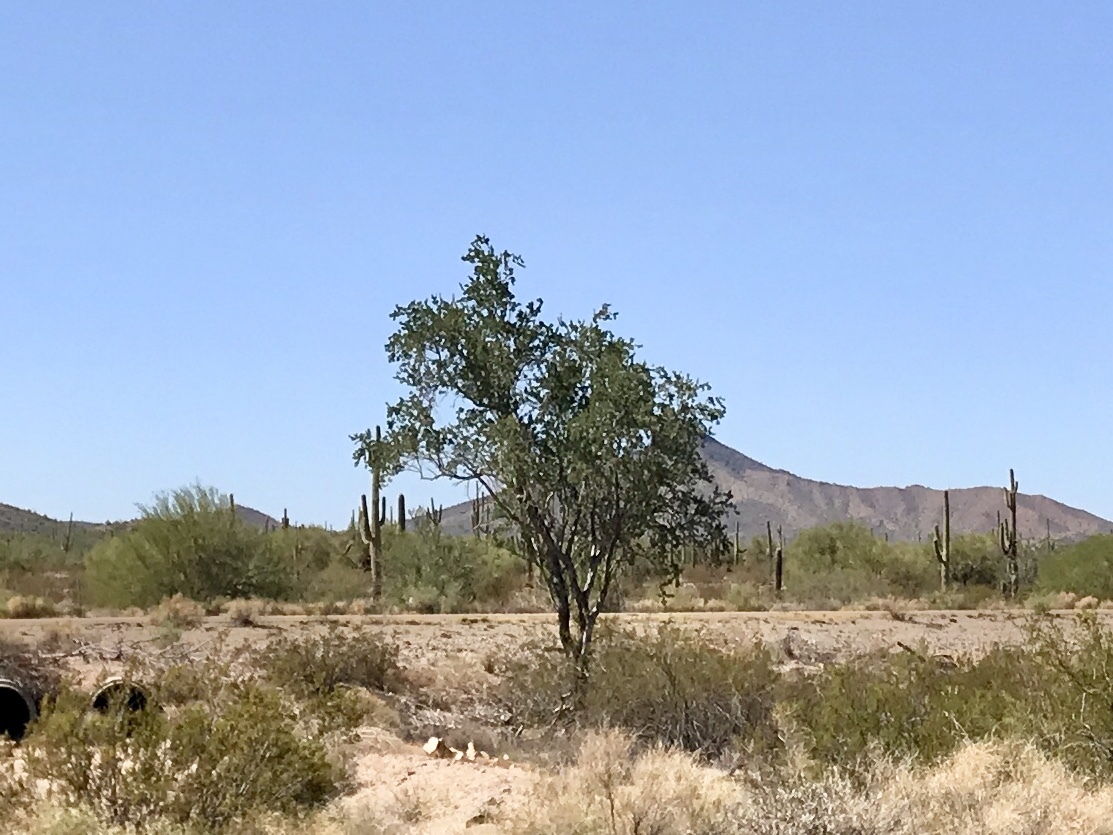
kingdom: Plantae
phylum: Tracheophyta
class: Magnoliopsida
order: Fabales
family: Fabaceae
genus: Olneya
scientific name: Olneya tesota
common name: Desert ironwood
